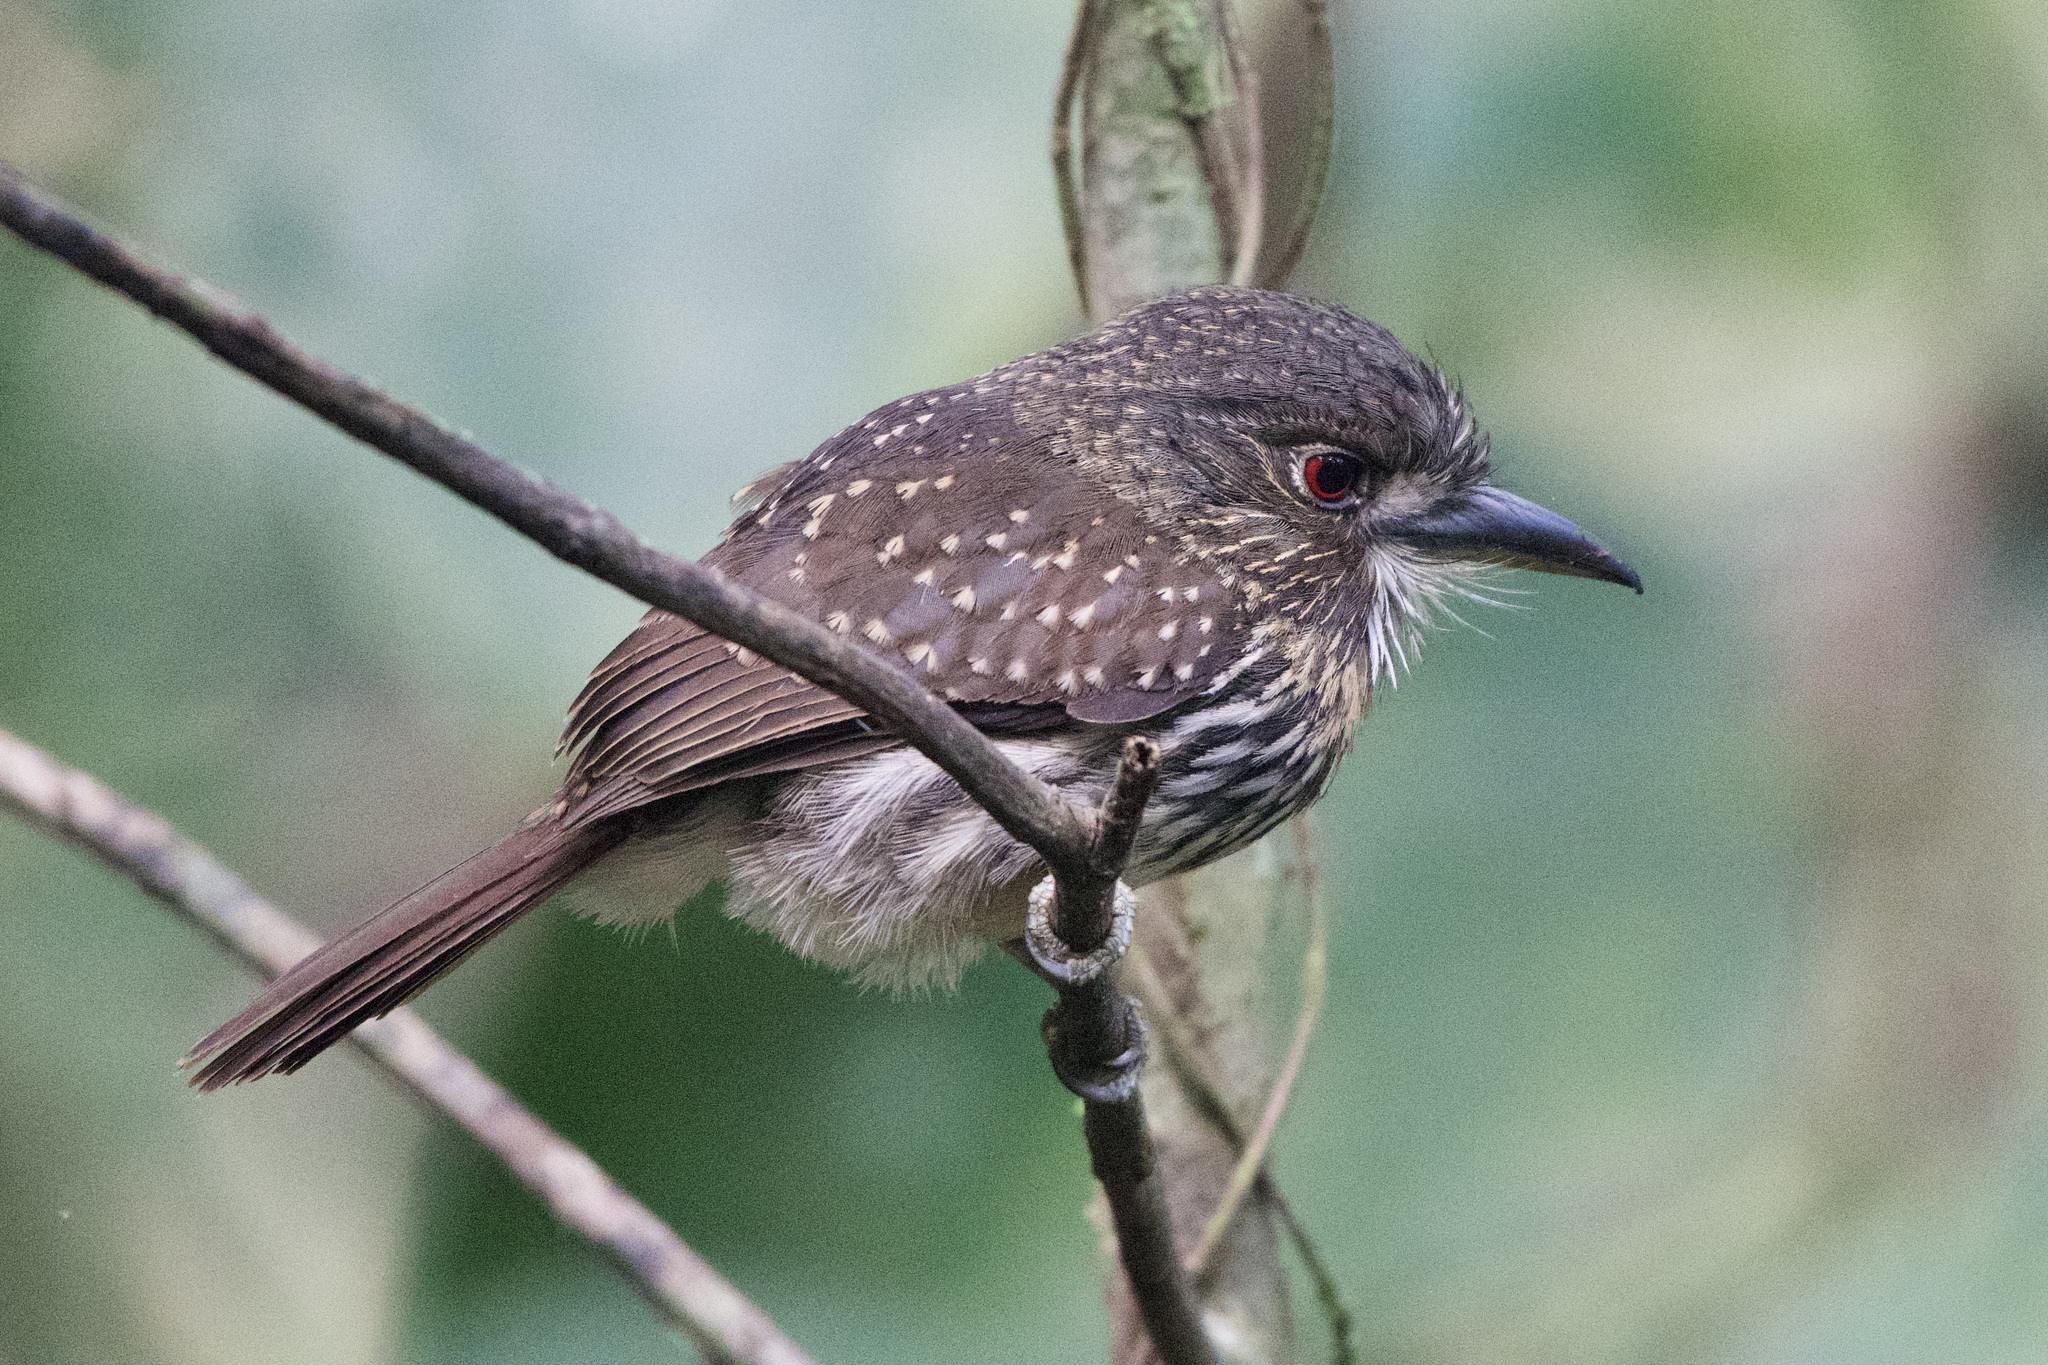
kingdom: Animalia
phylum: Chordata
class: Aves
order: Piciformes
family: Bucconidae
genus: Malacoptila
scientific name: Malacoptila panamensis
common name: White-whiskered puffbird
